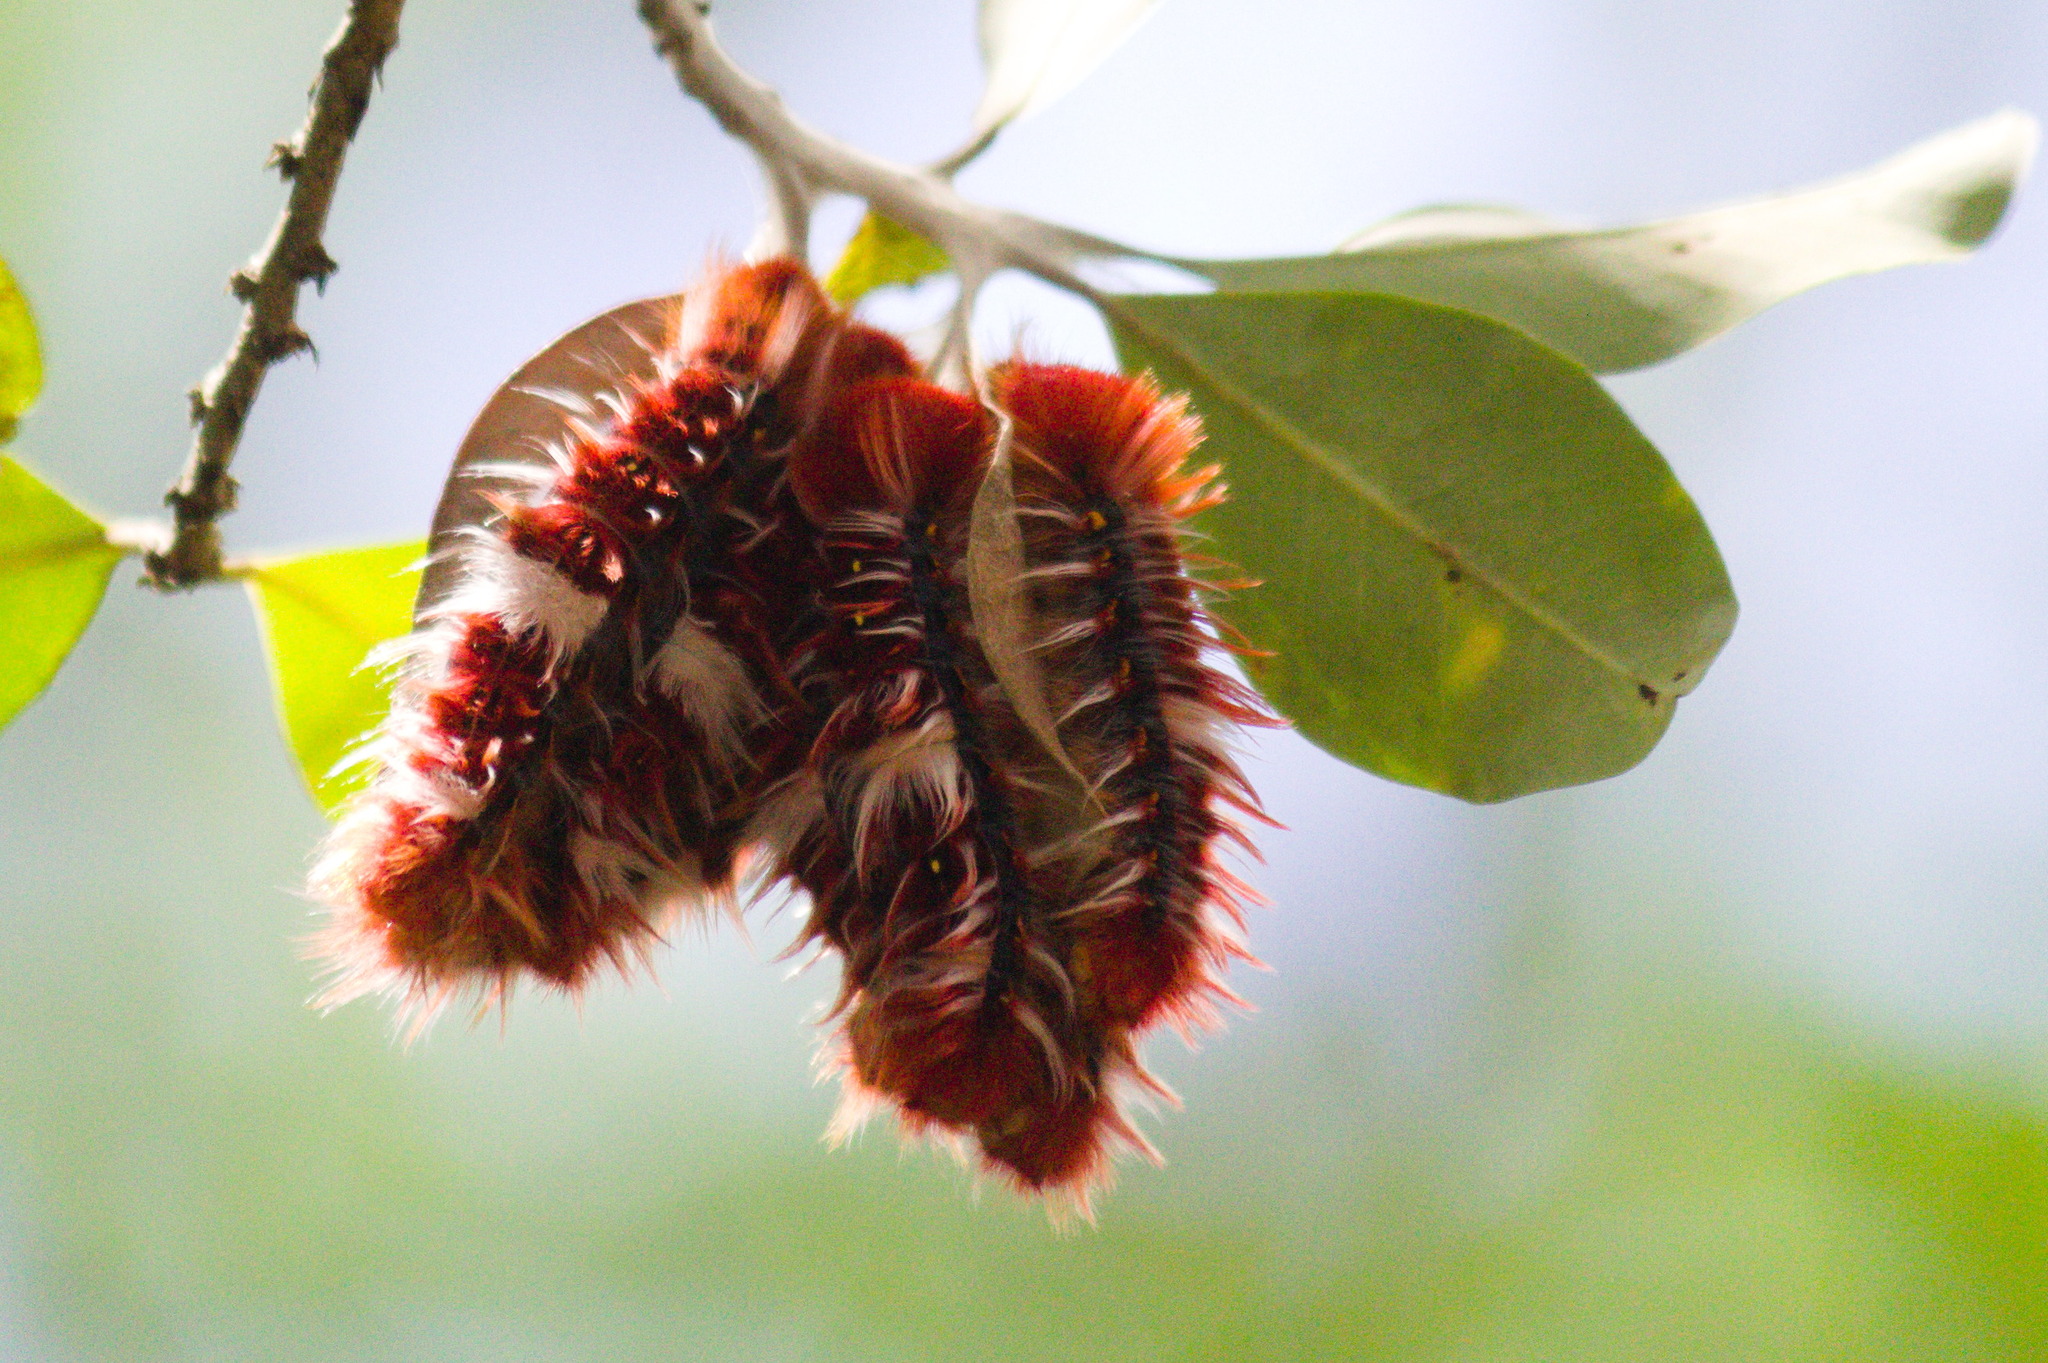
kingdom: Animalia
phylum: Arthropoda
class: Insecta
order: Lepidoptera
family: Nymphalidae
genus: Morpho
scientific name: Morpho epistrophus
